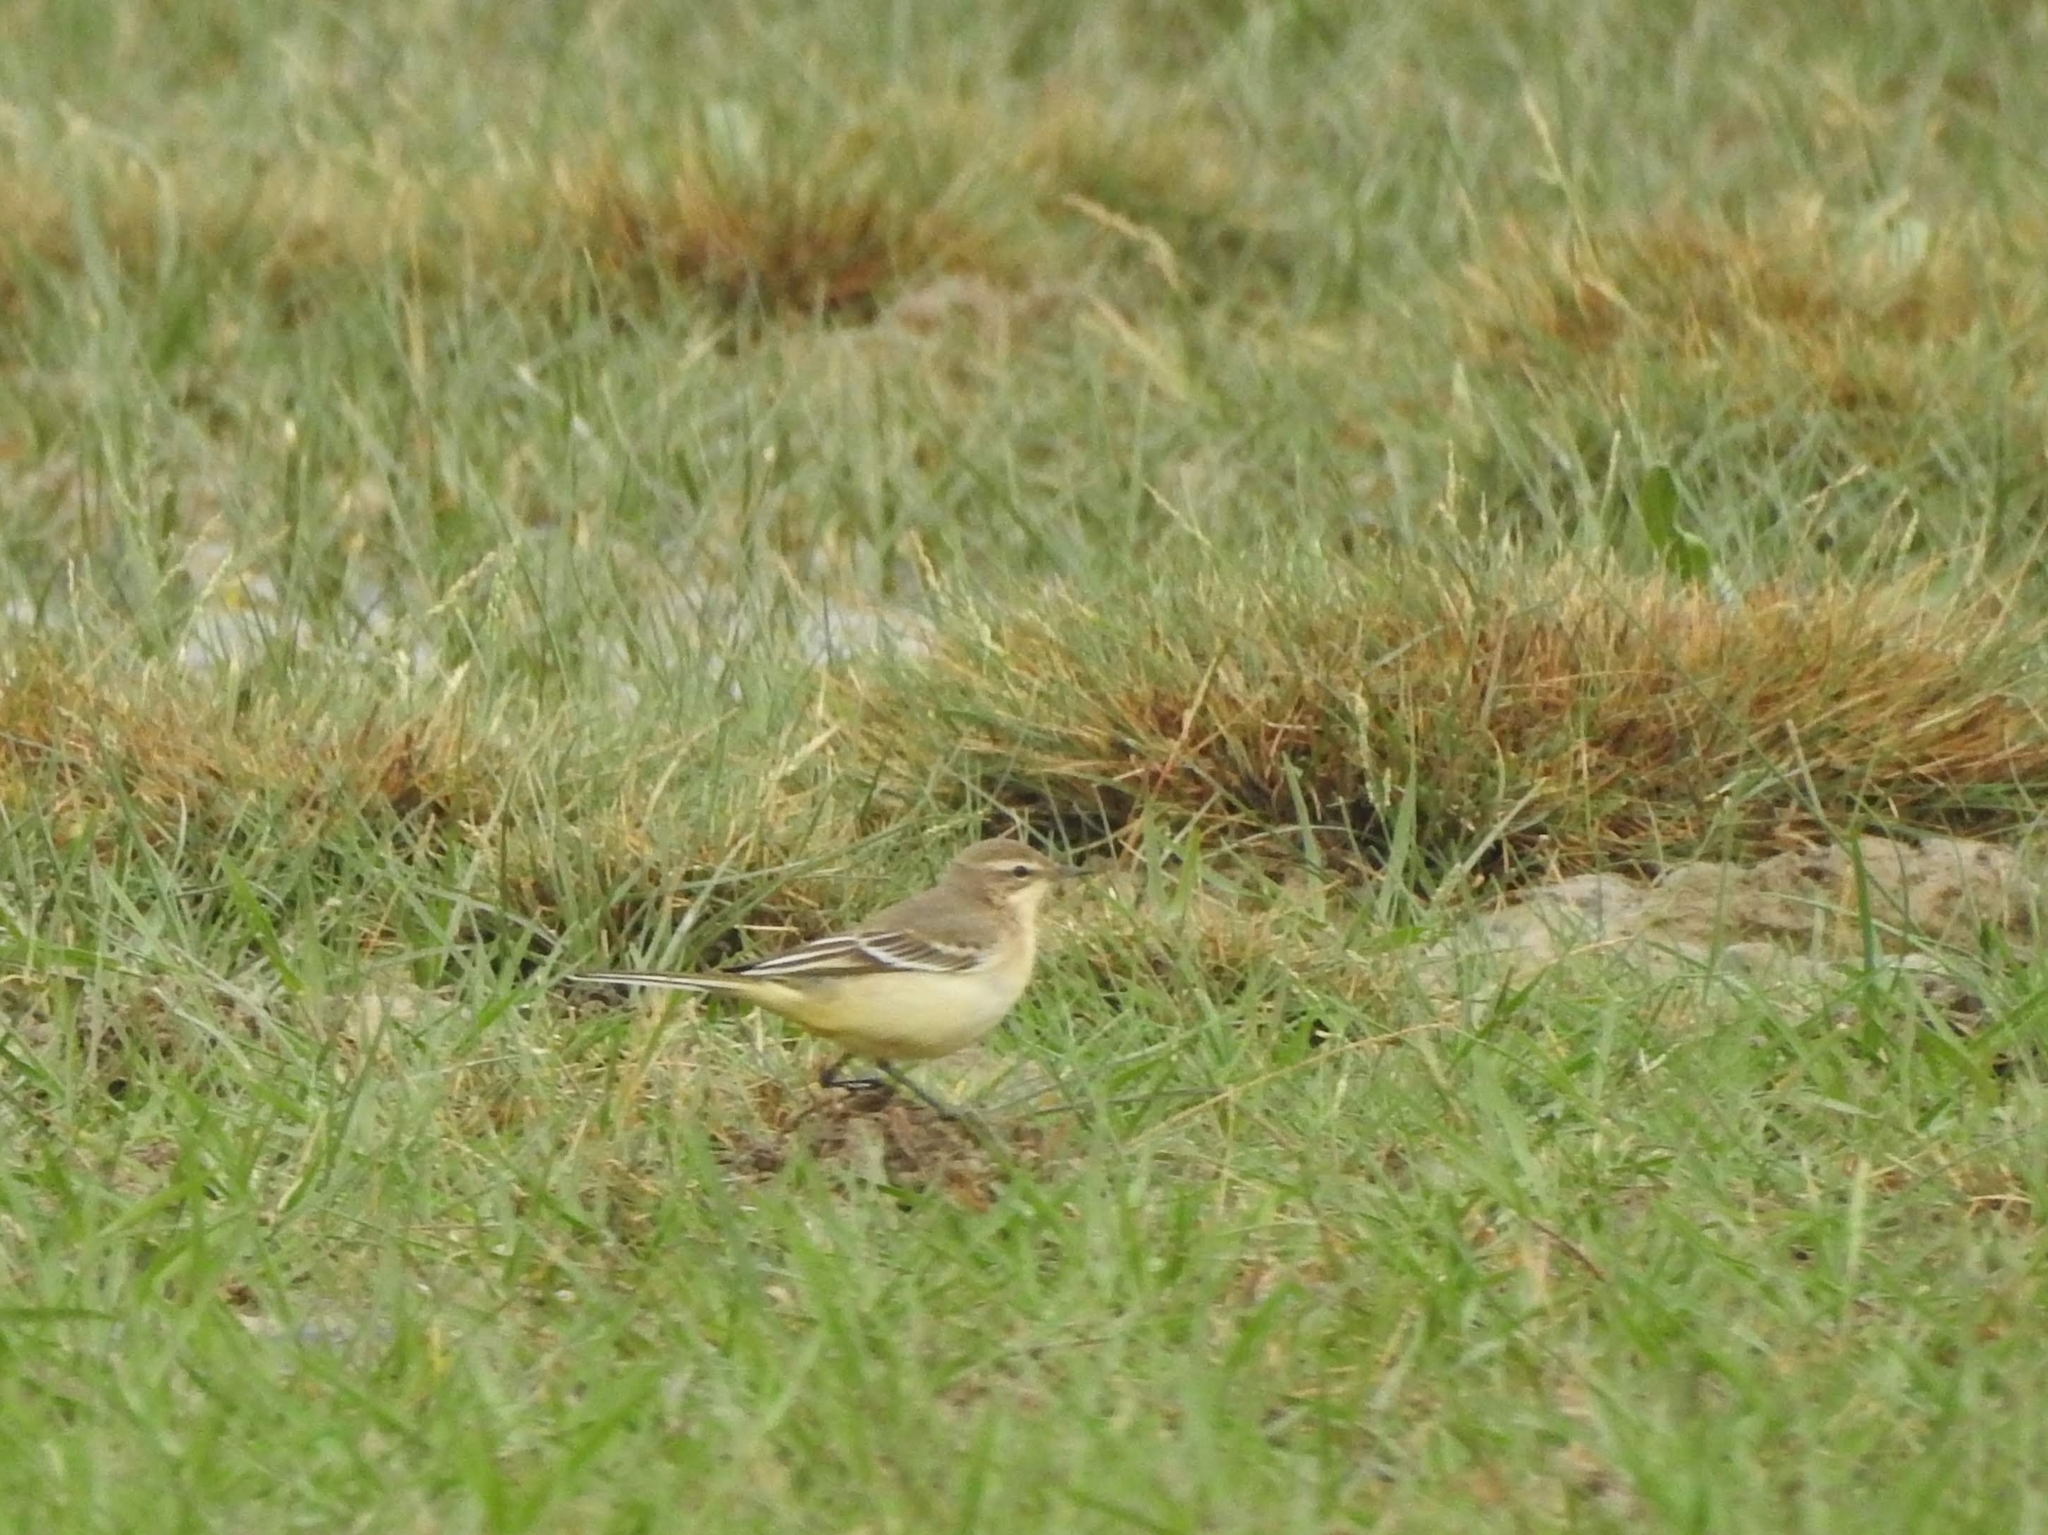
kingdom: Animalia
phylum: Chordata
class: Aves
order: Passeriformes
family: Motacillidae
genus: Motacilla
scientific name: Motacilla flava
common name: Western yellow wagtail
